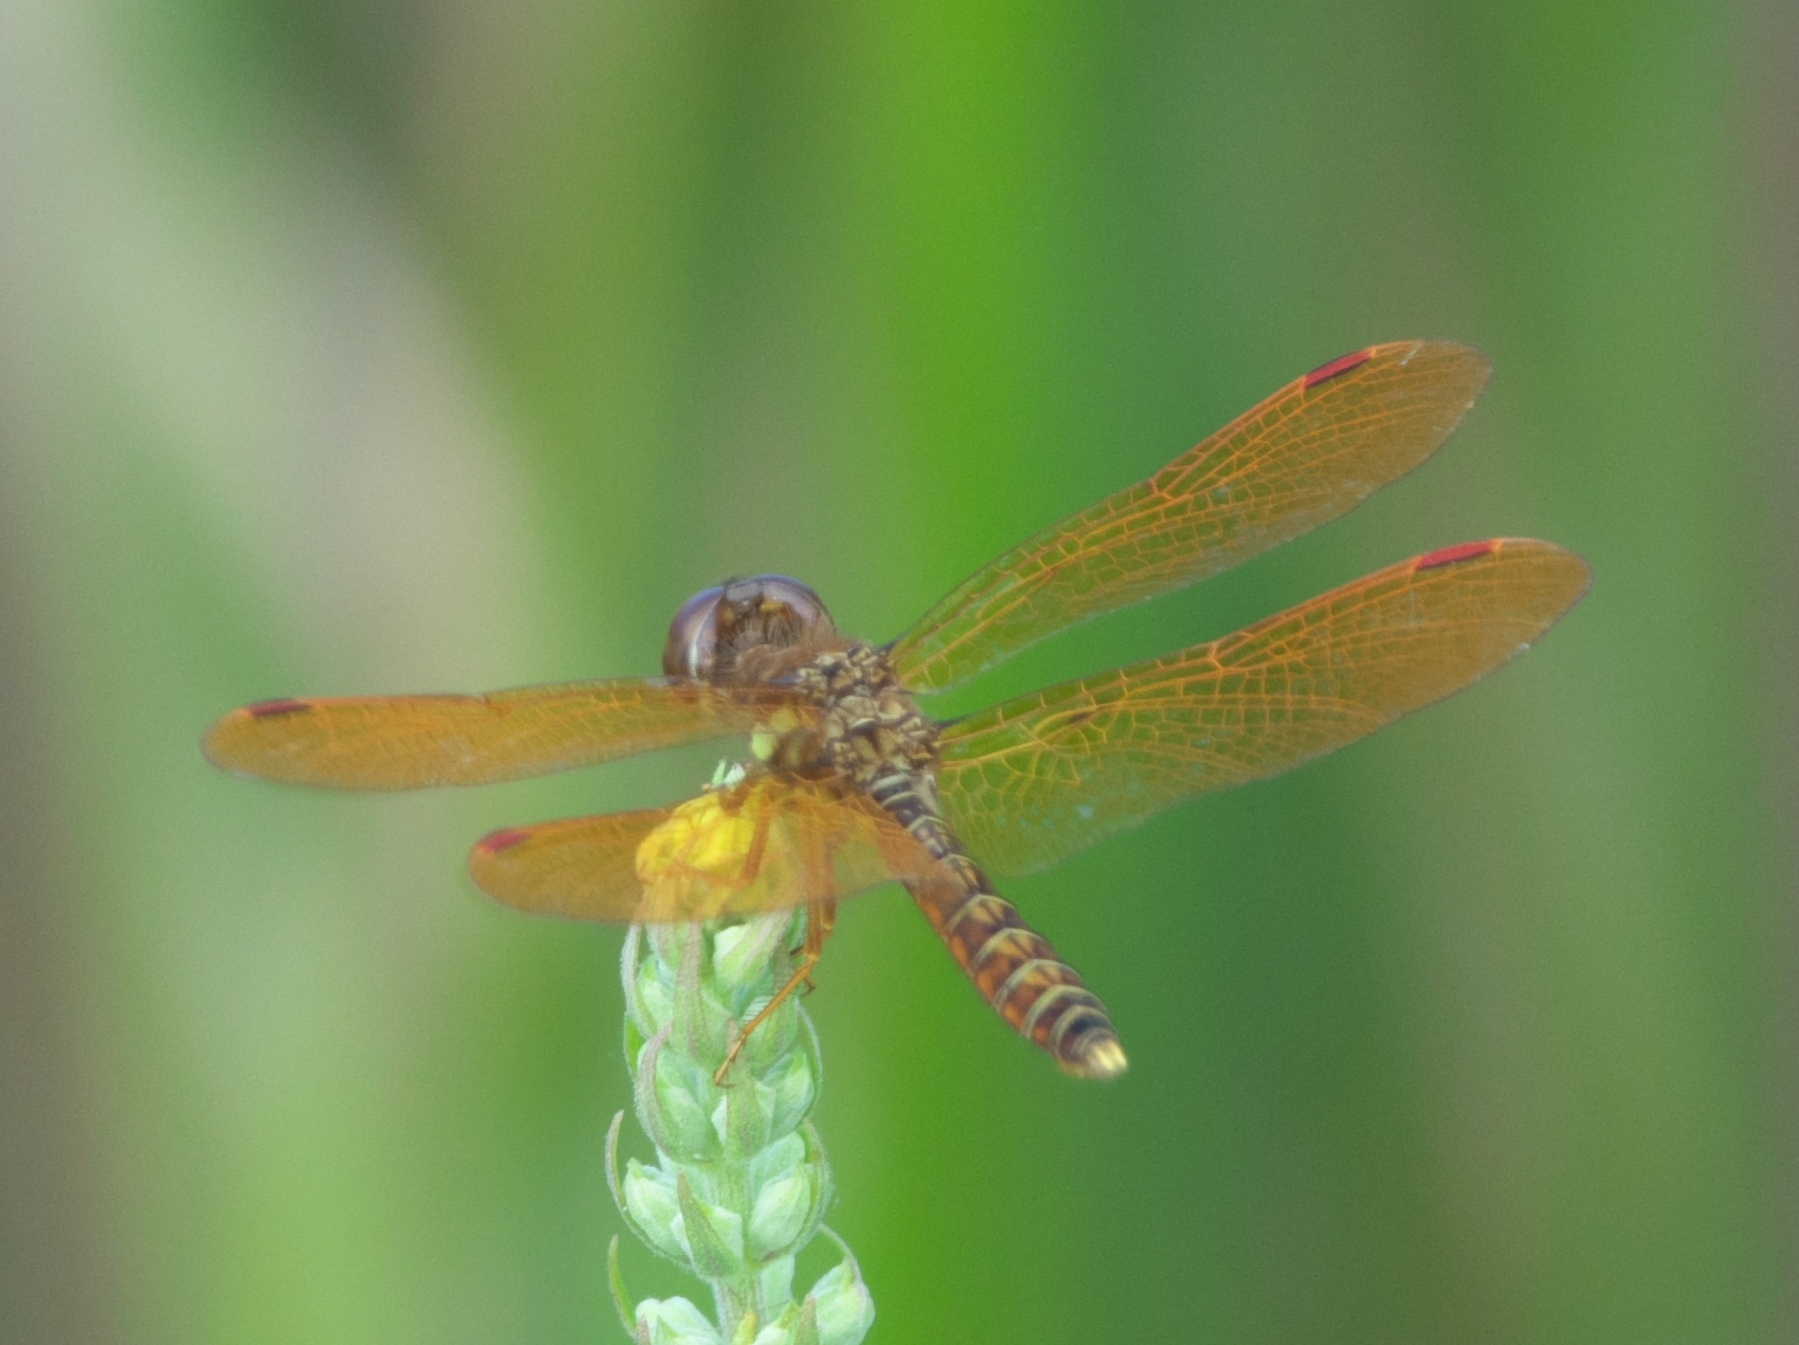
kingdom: Animalia
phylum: Arthropoda
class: Insecta
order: Odonata
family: Libellulidae
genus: Perithemis
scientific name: Perithemis tenera
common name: Eastern amberwing
